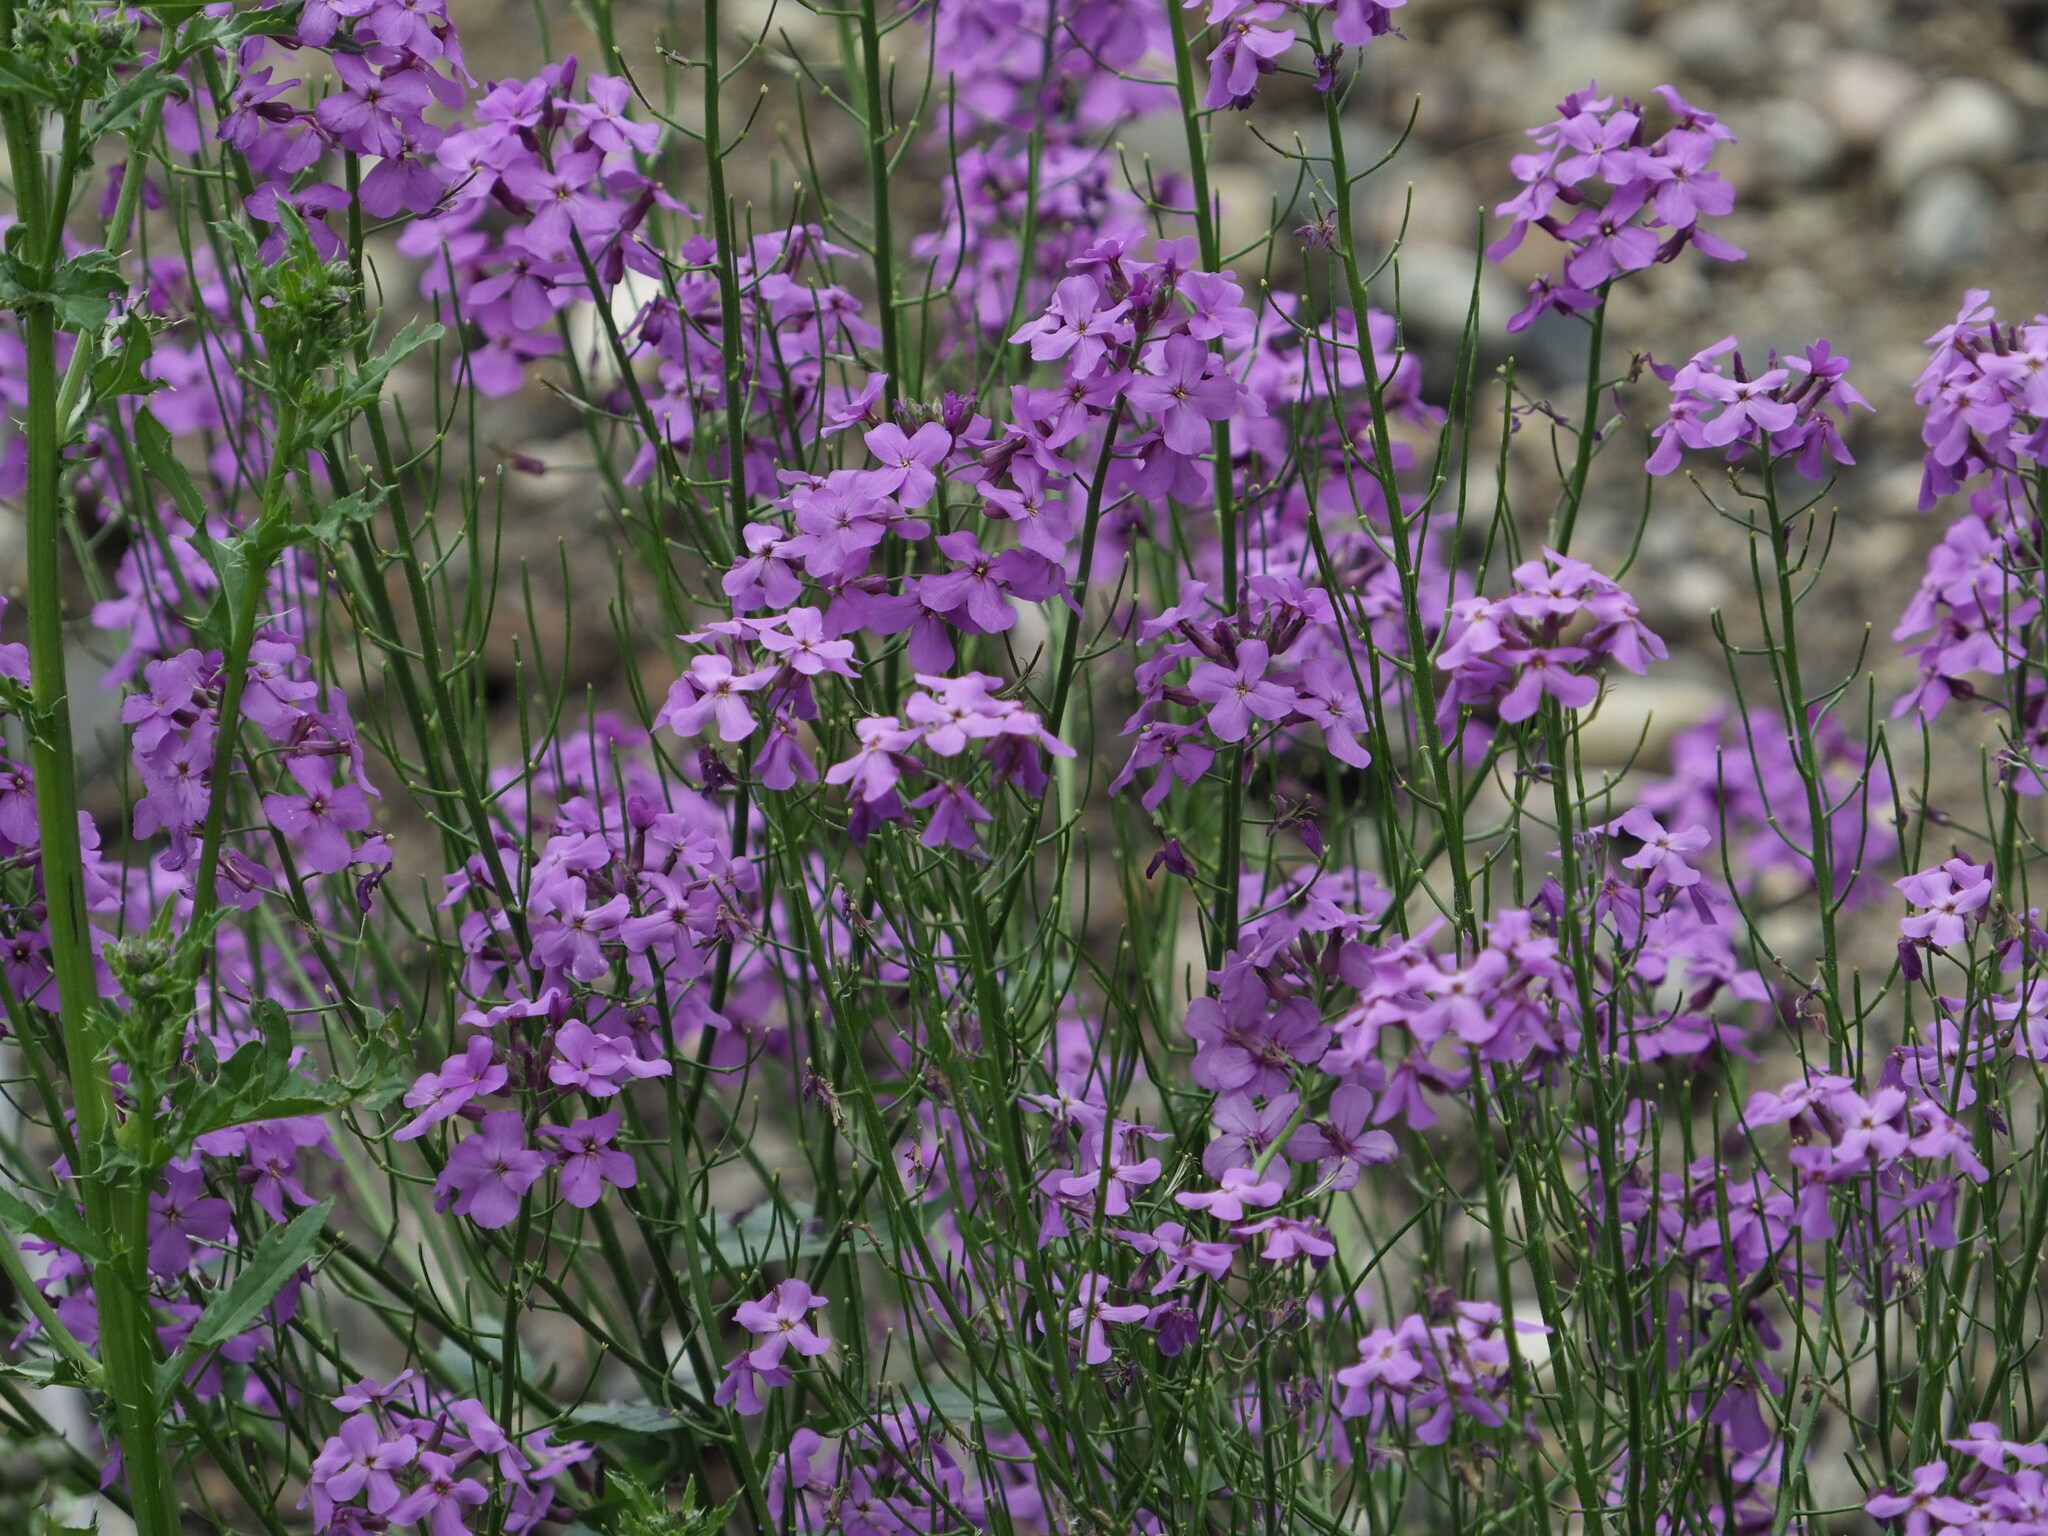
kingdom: Plantae
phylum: Tracheophyta
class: Magnoliopsida
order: Brassicales
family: Brassicaceae
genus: Hesperis
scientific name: Hesperis matronalis
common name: Dame's-violet
